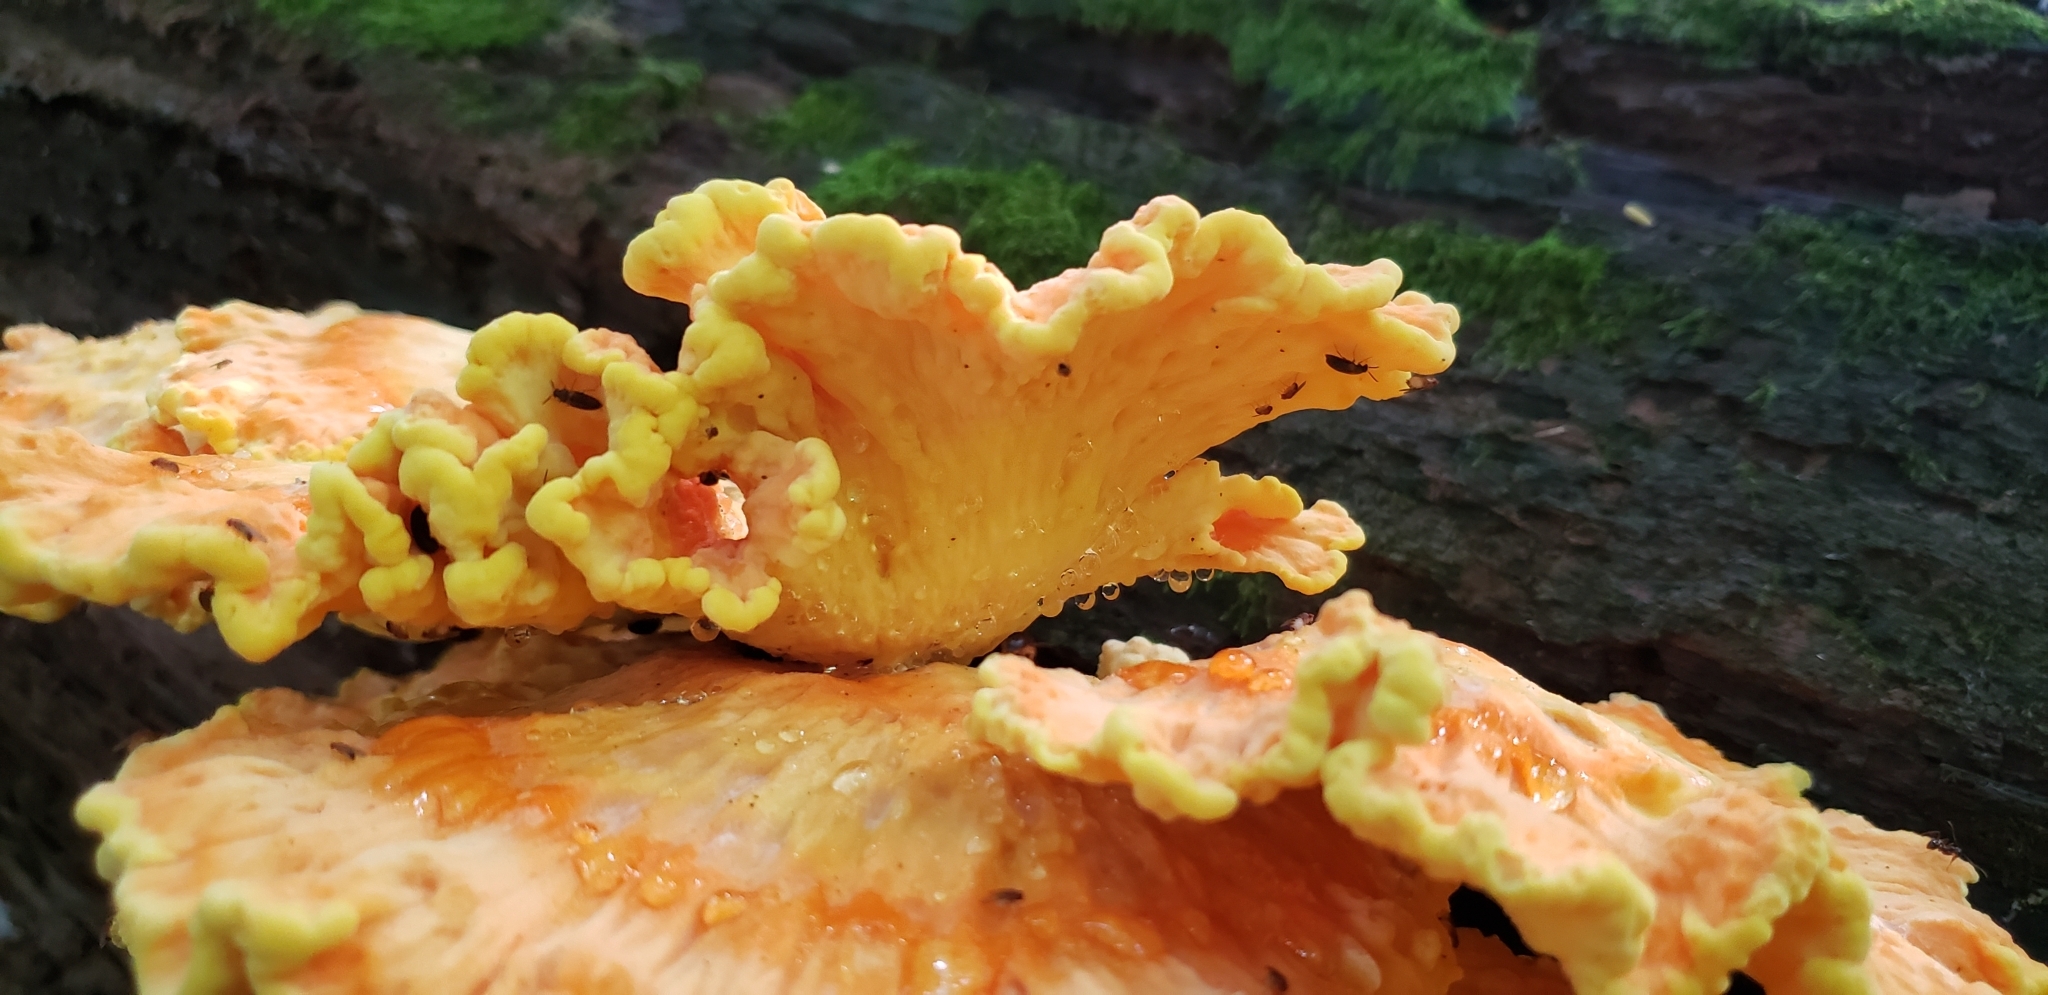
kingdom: Fungi
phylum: Basidiomycota
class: Agaricomycetes
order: Polyporales
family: Laetiporaceae
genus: Laetiporus
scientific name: Laetiporus sulphureus
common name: Chicken of the woods
